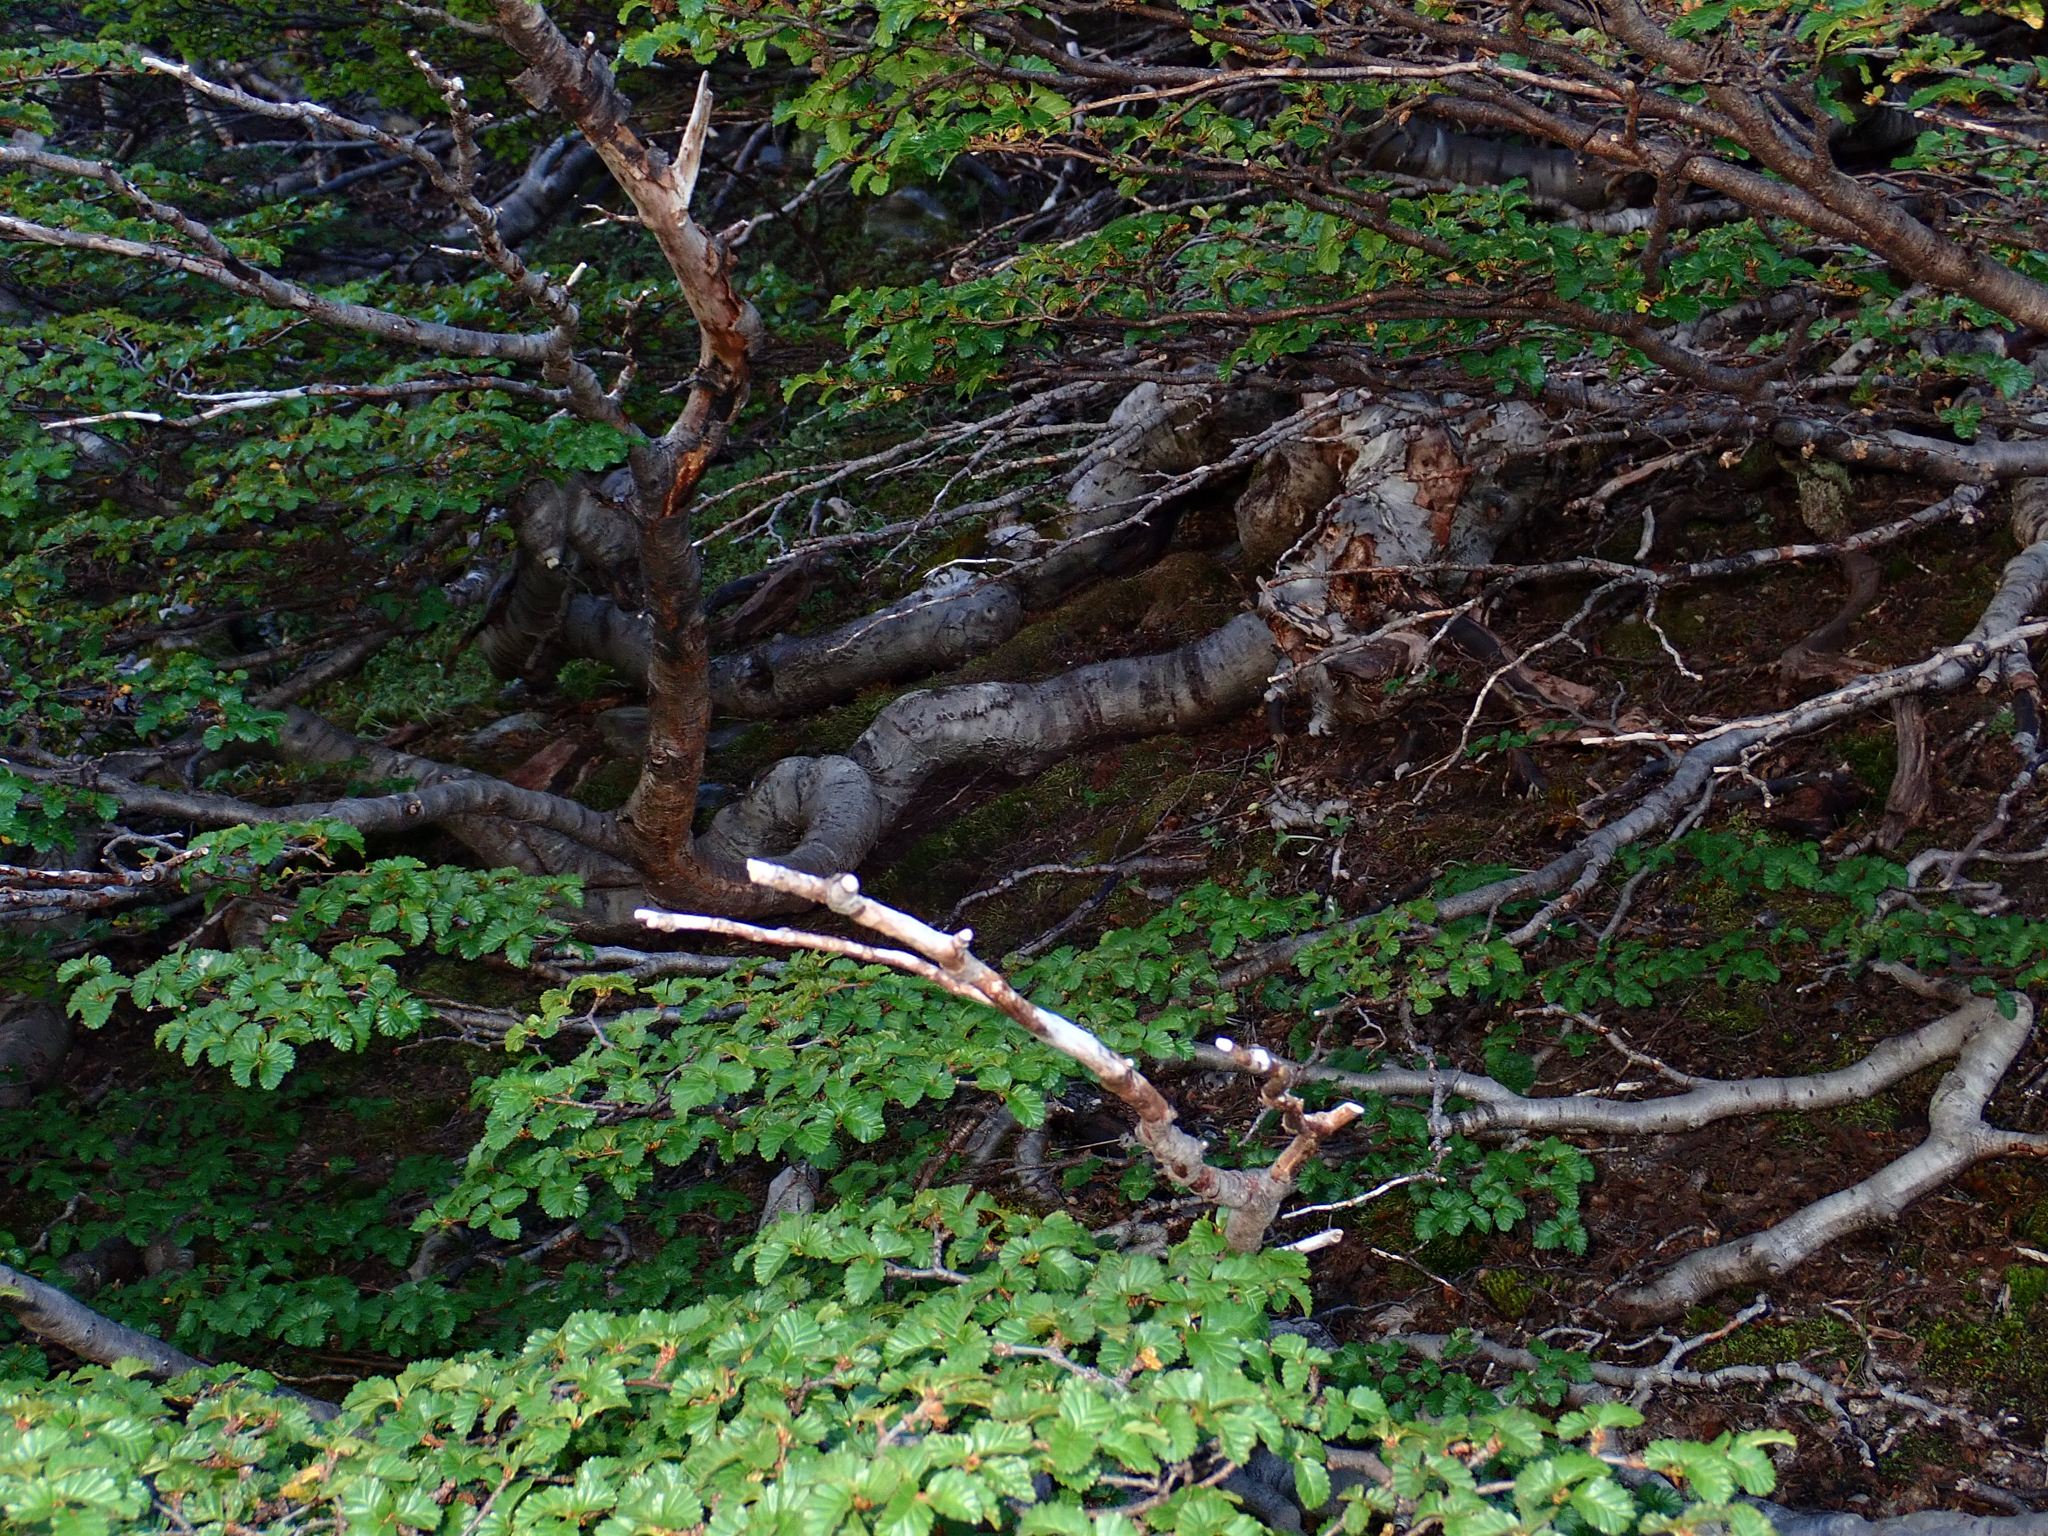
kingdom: Plantae
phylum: Tracheophyta
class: Magnoliopsida
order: Fagales
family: Nothofagaceae
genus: Nothofagus
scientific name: Nothofagus pumilio
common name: Lenga beech
